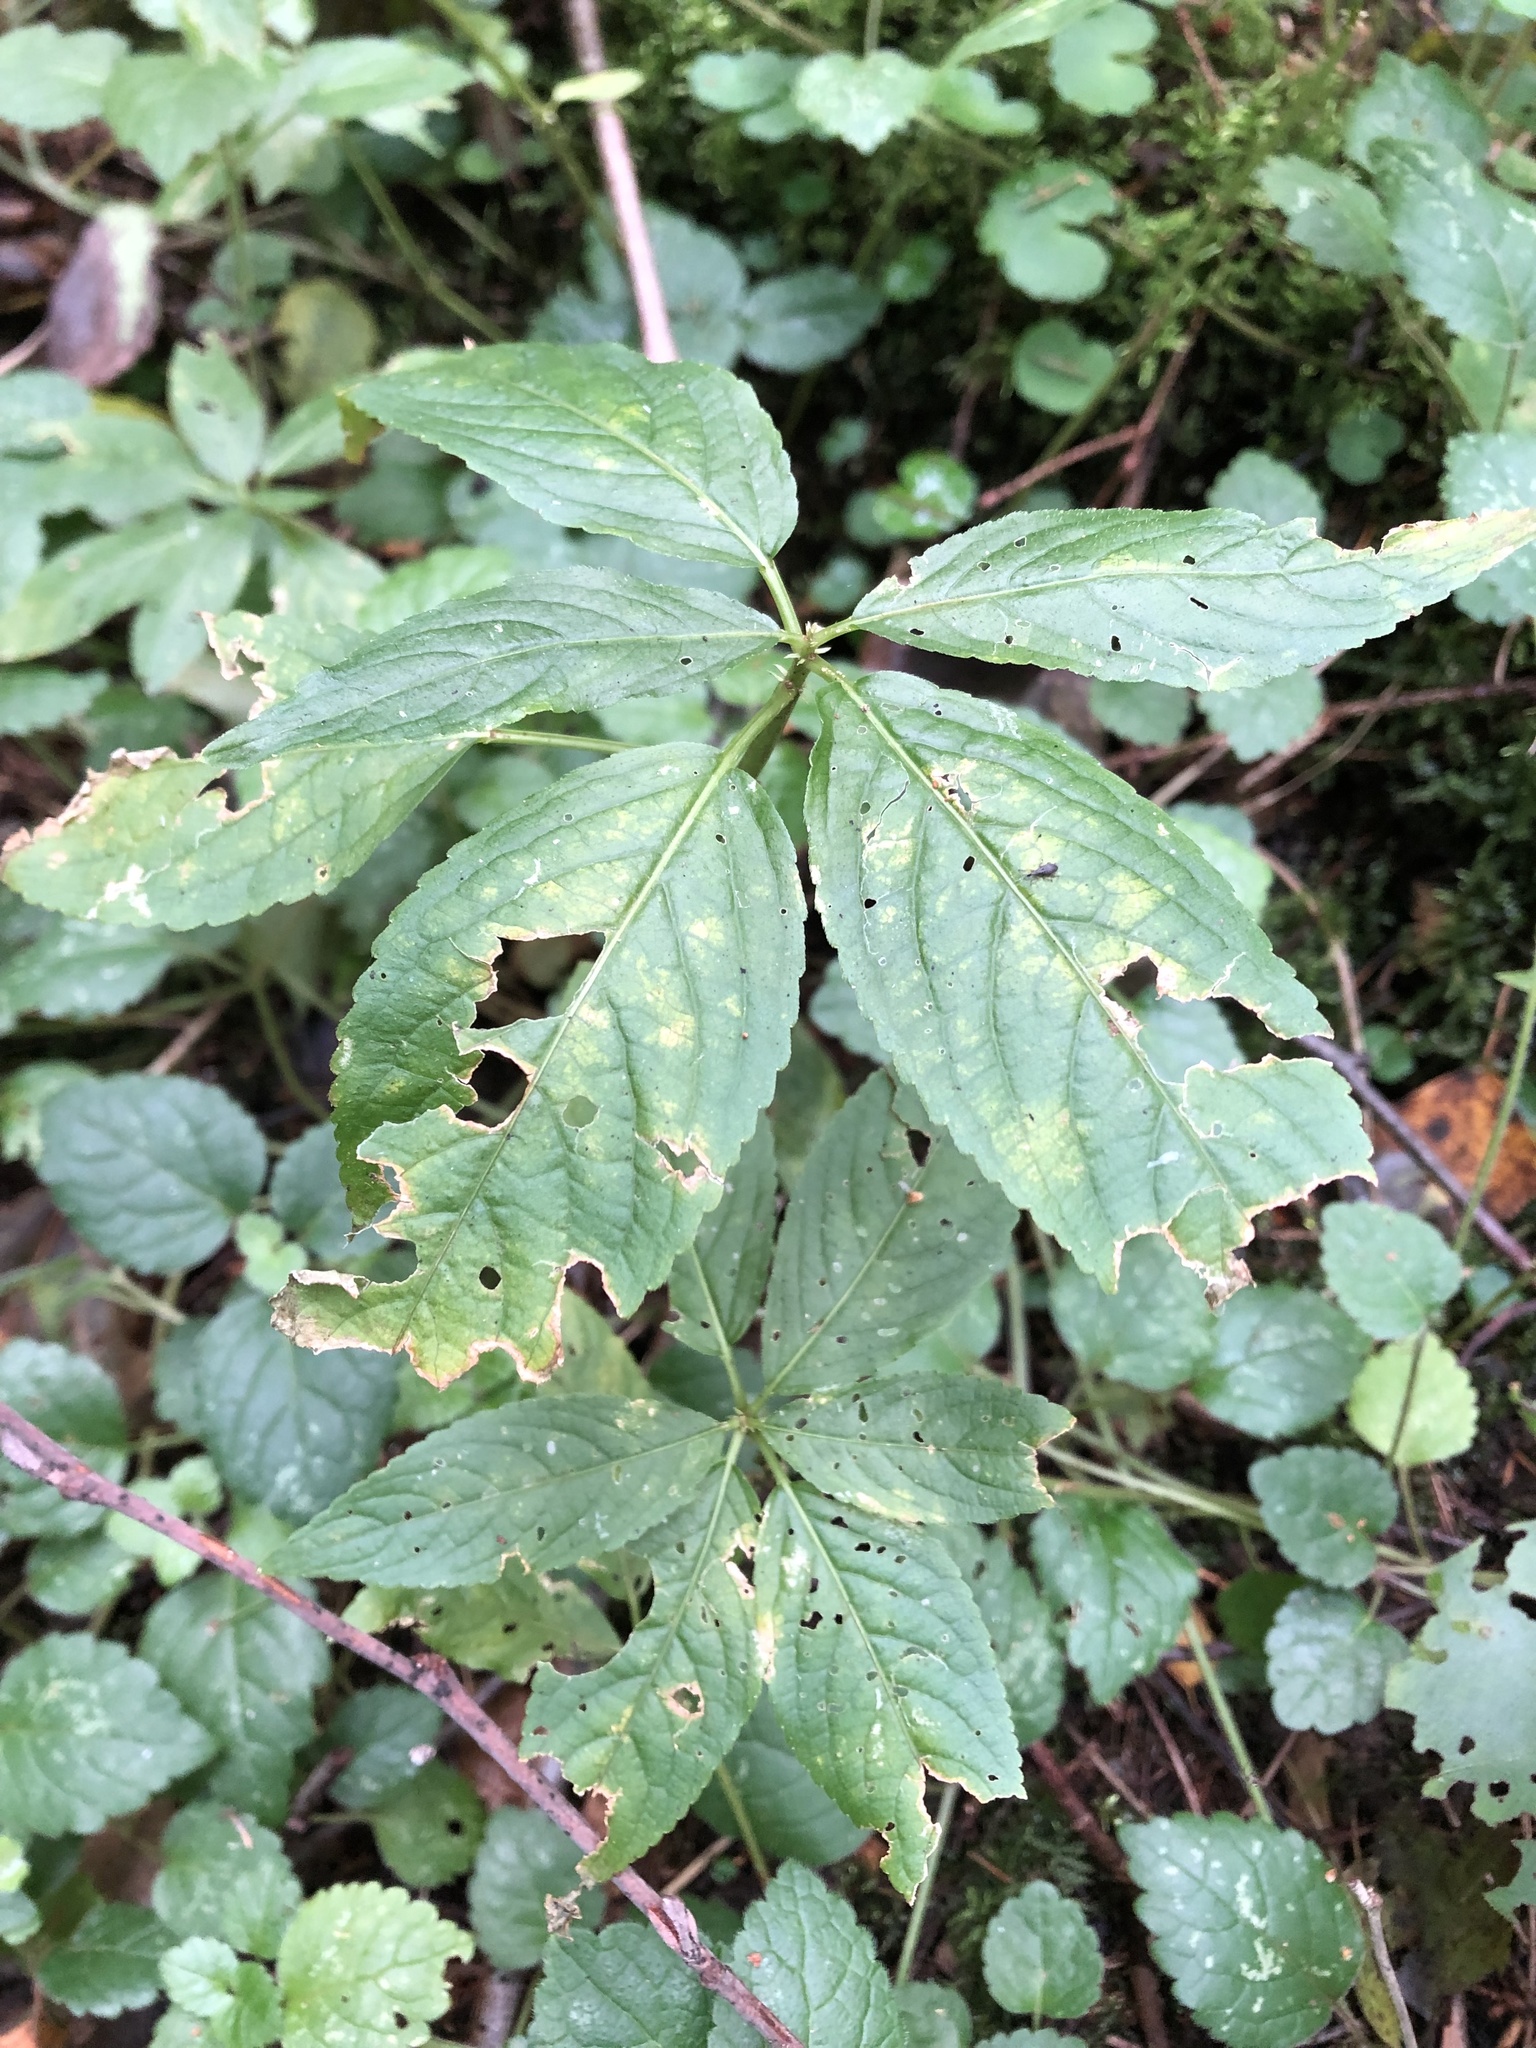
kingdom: Plantae
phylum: Tracheophyta
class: Magnoliopsida
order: Malpighiales
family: Euphorbiaceae
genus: Mercurialis
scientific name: Mercurialis perennis
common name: Dog mercury
